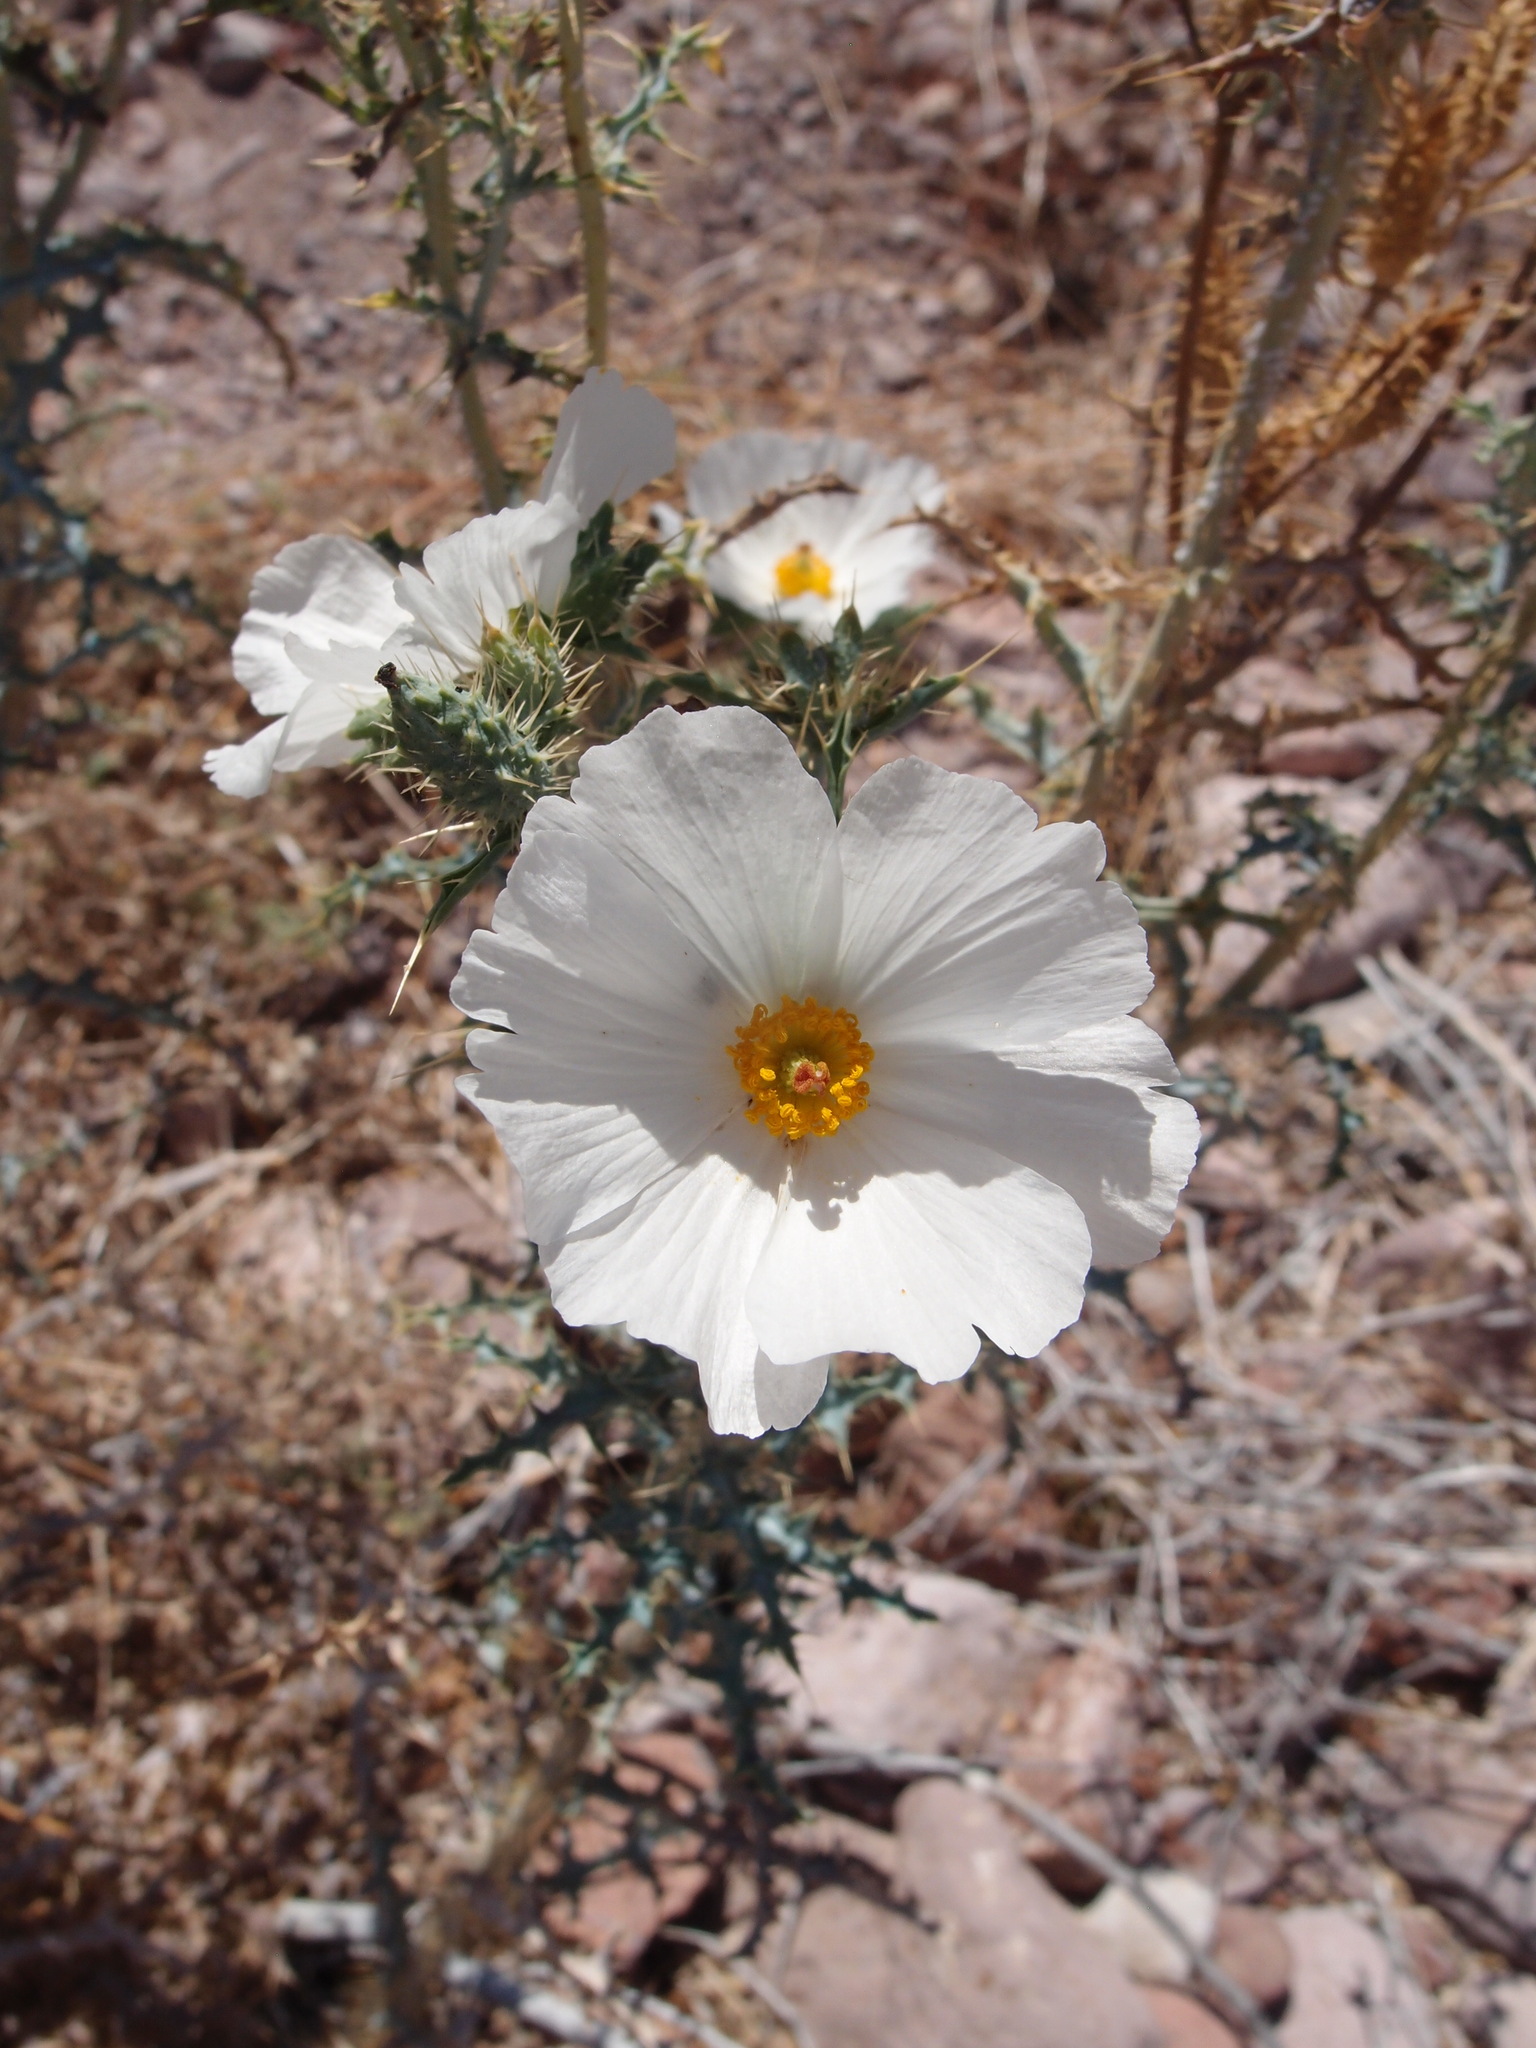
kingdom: Plantae
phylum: Tracheophyta
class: Magnoliopsida
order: Ranunculales
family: Papaveraceae
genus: Argemone
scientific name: Argemone gracilenta
